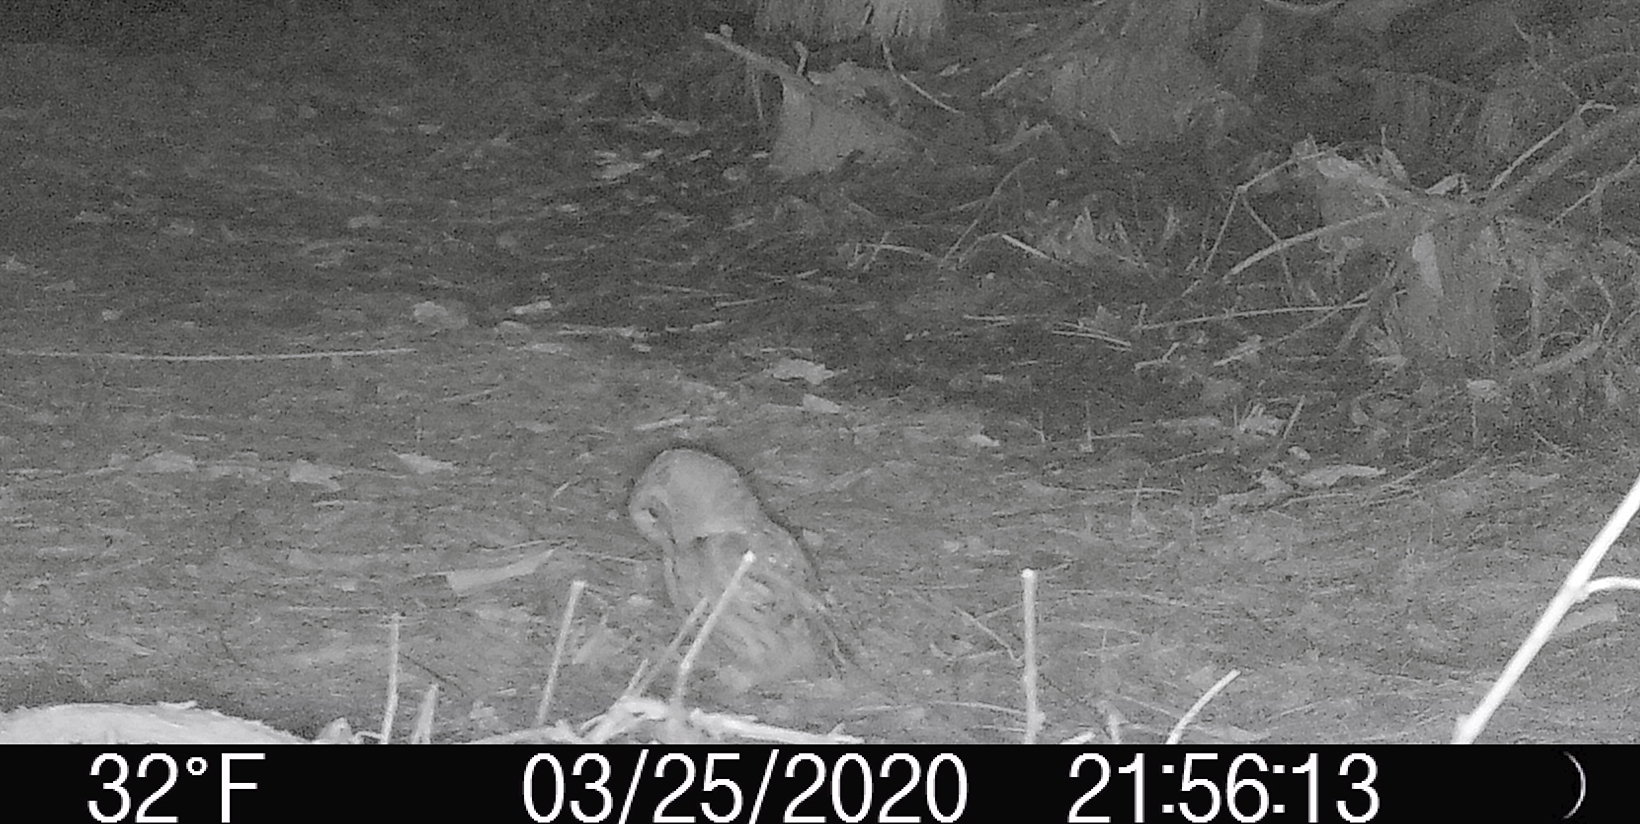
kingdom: Animalia
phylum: Chordata
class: Aves
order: Strigiformes
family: Strigidae
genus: Megascops
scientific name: Megascops asio
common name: Eastern screech-owl
